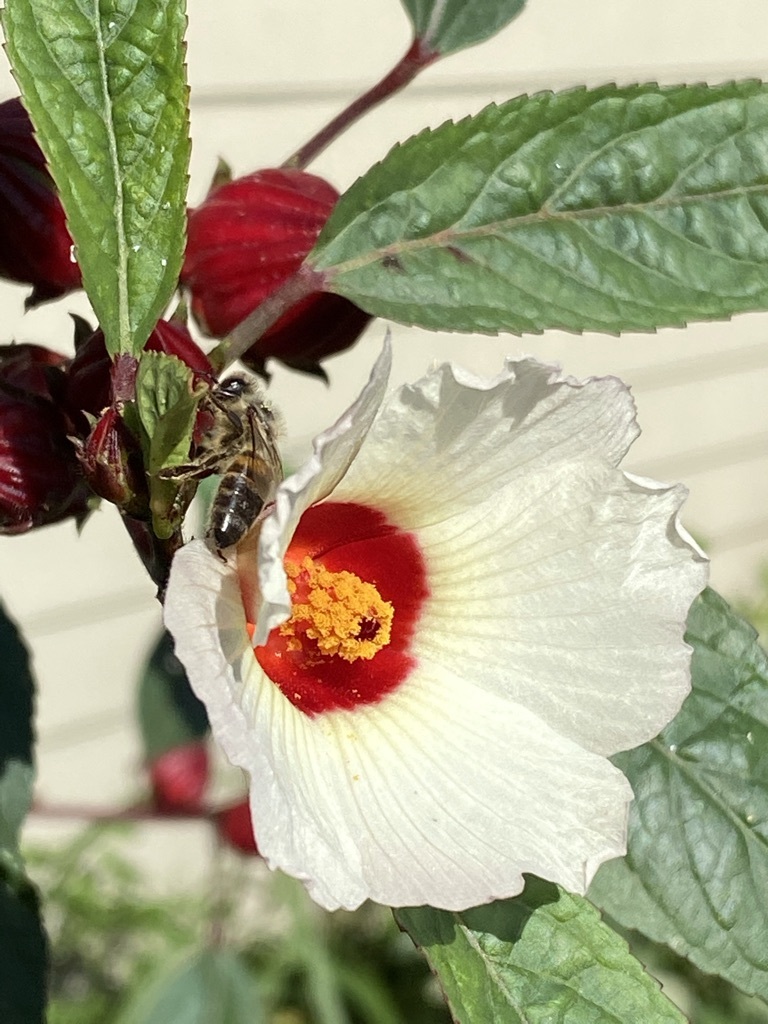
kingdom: Animalia
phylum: Arthropoda
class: Insecta
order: Hymenoptera
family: Apidae
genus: Apis
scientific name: Apis mellifera
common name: Honey bee
